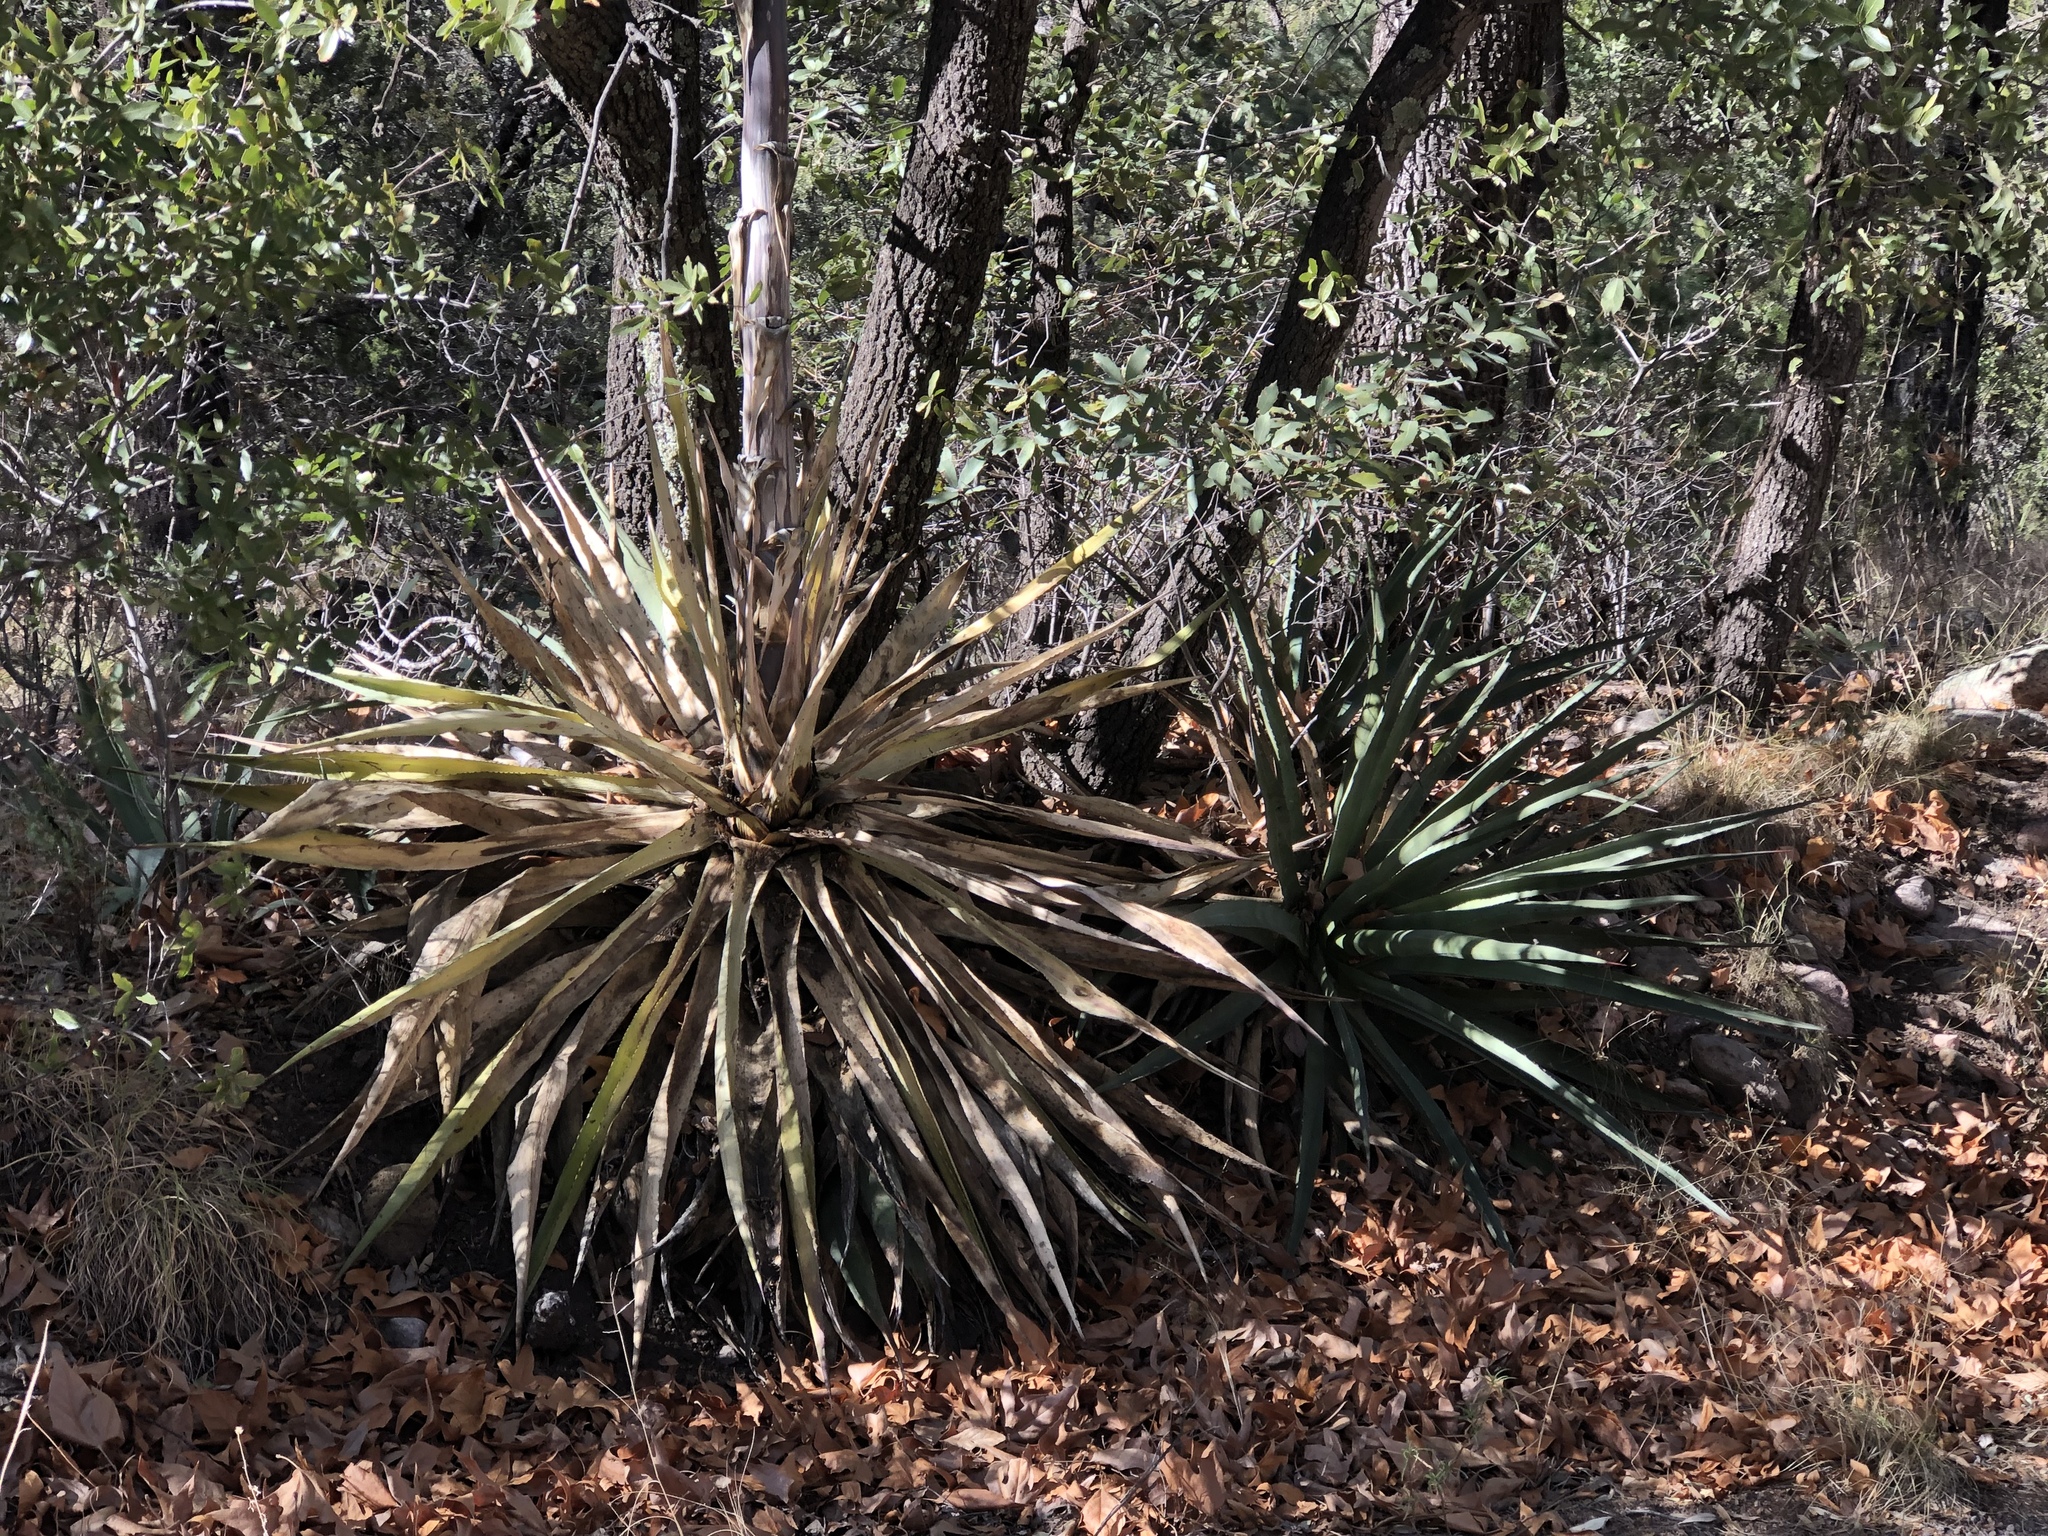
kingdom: Plantae
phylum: Tracheophyta
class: Liliopsida
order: Asparagales
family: Asparagaceae
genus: Agave
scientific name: Agave palmeri
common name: Palmer agave
